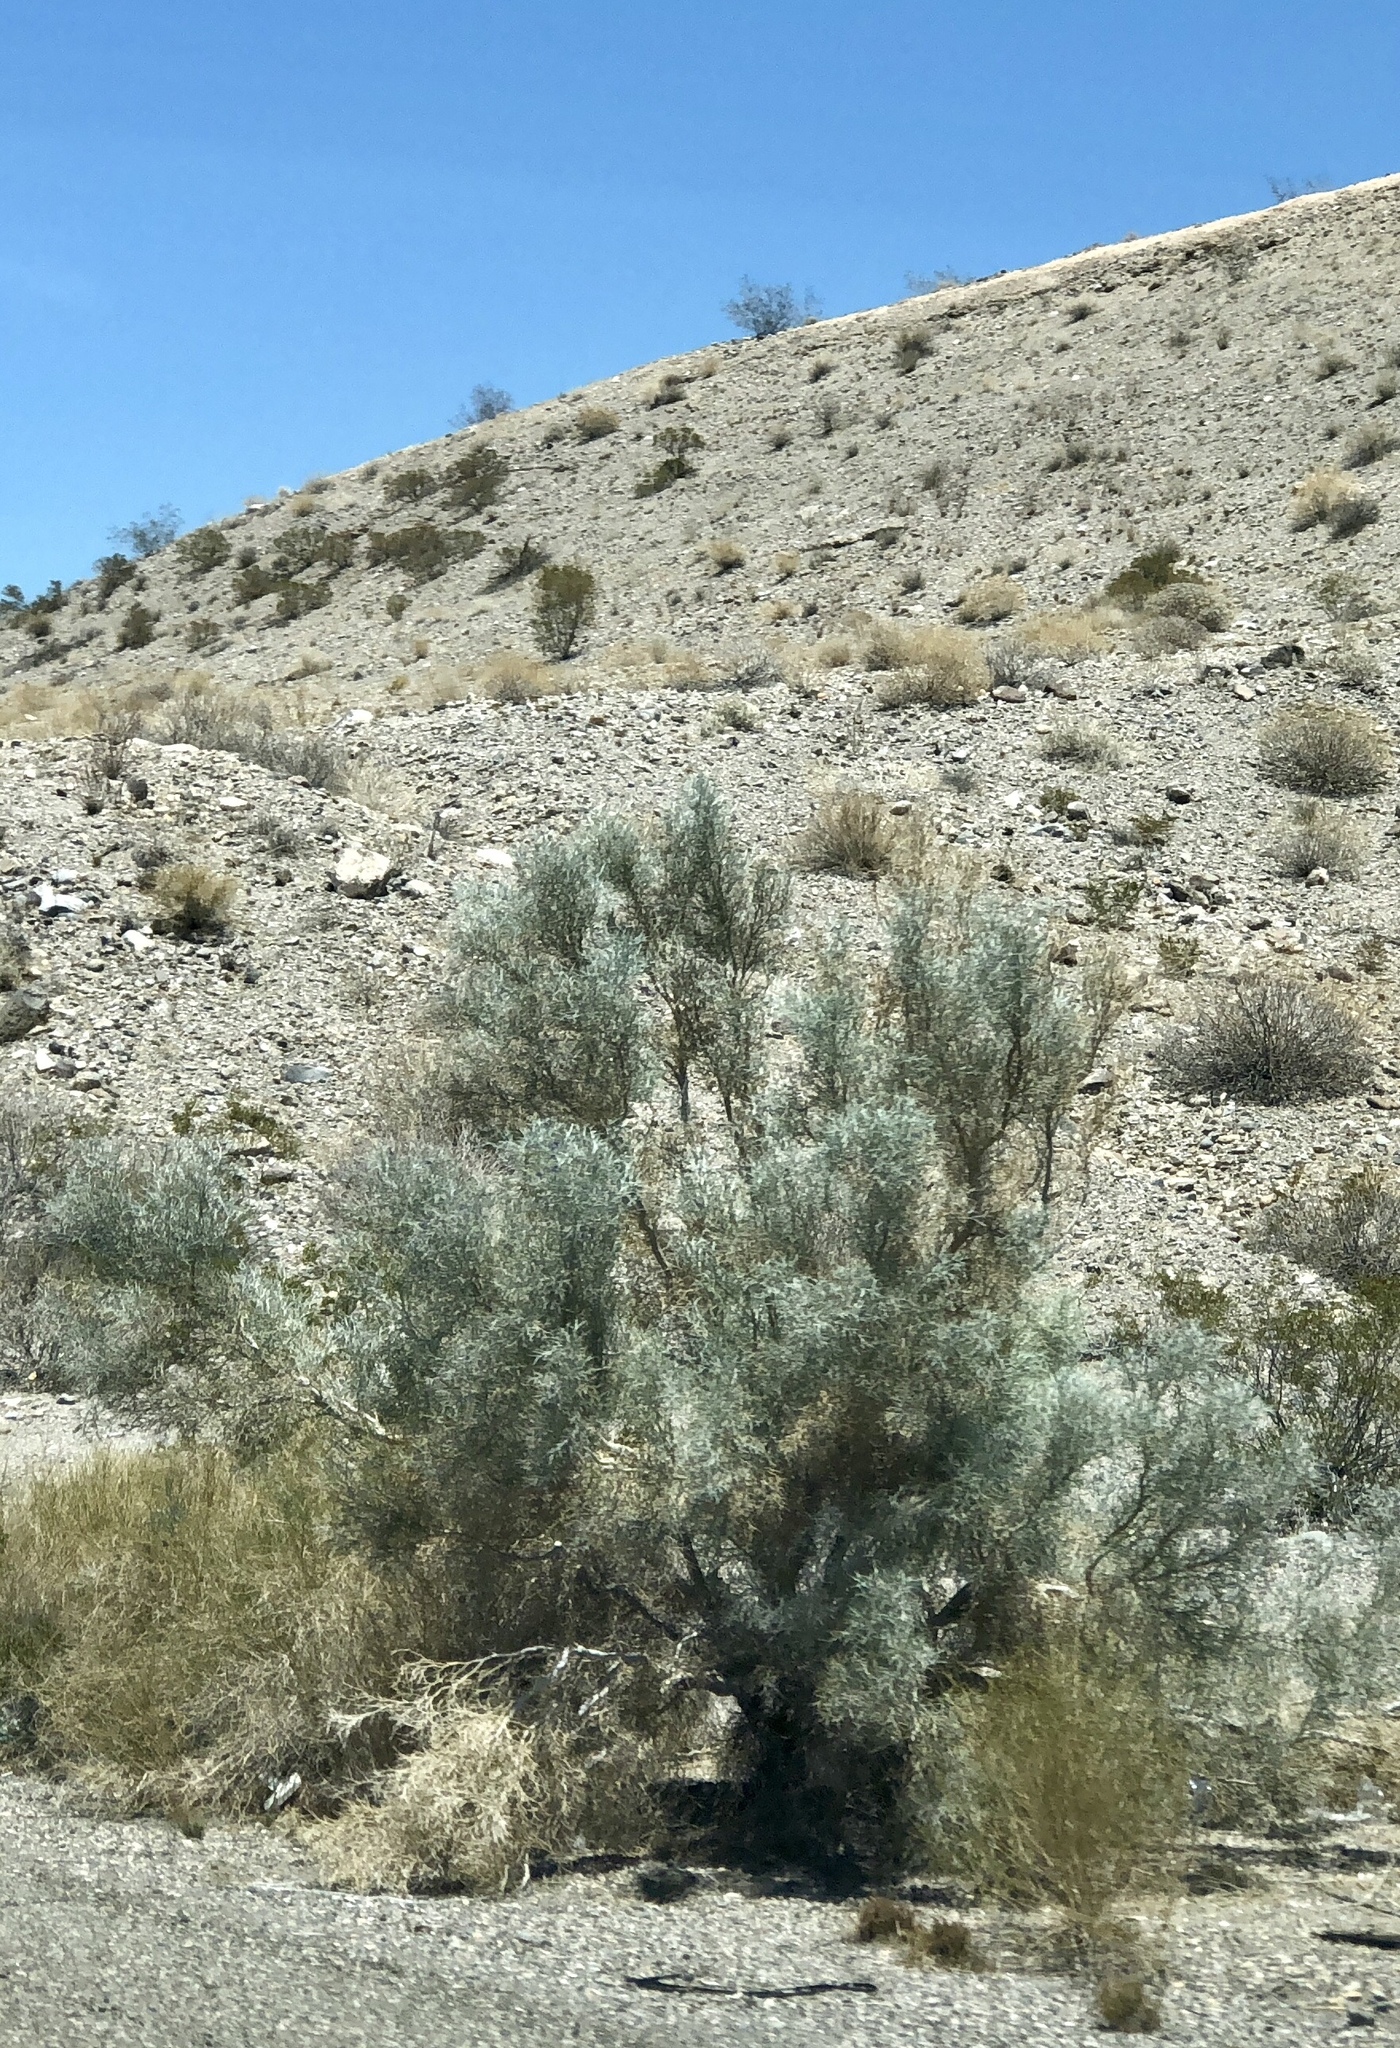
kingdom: Plantae
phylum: Tracheophyta
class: Magnoliopsida
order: Fabales
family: Fabaceae
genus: Psorothamnus
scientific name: Psorothamnus spinosus
